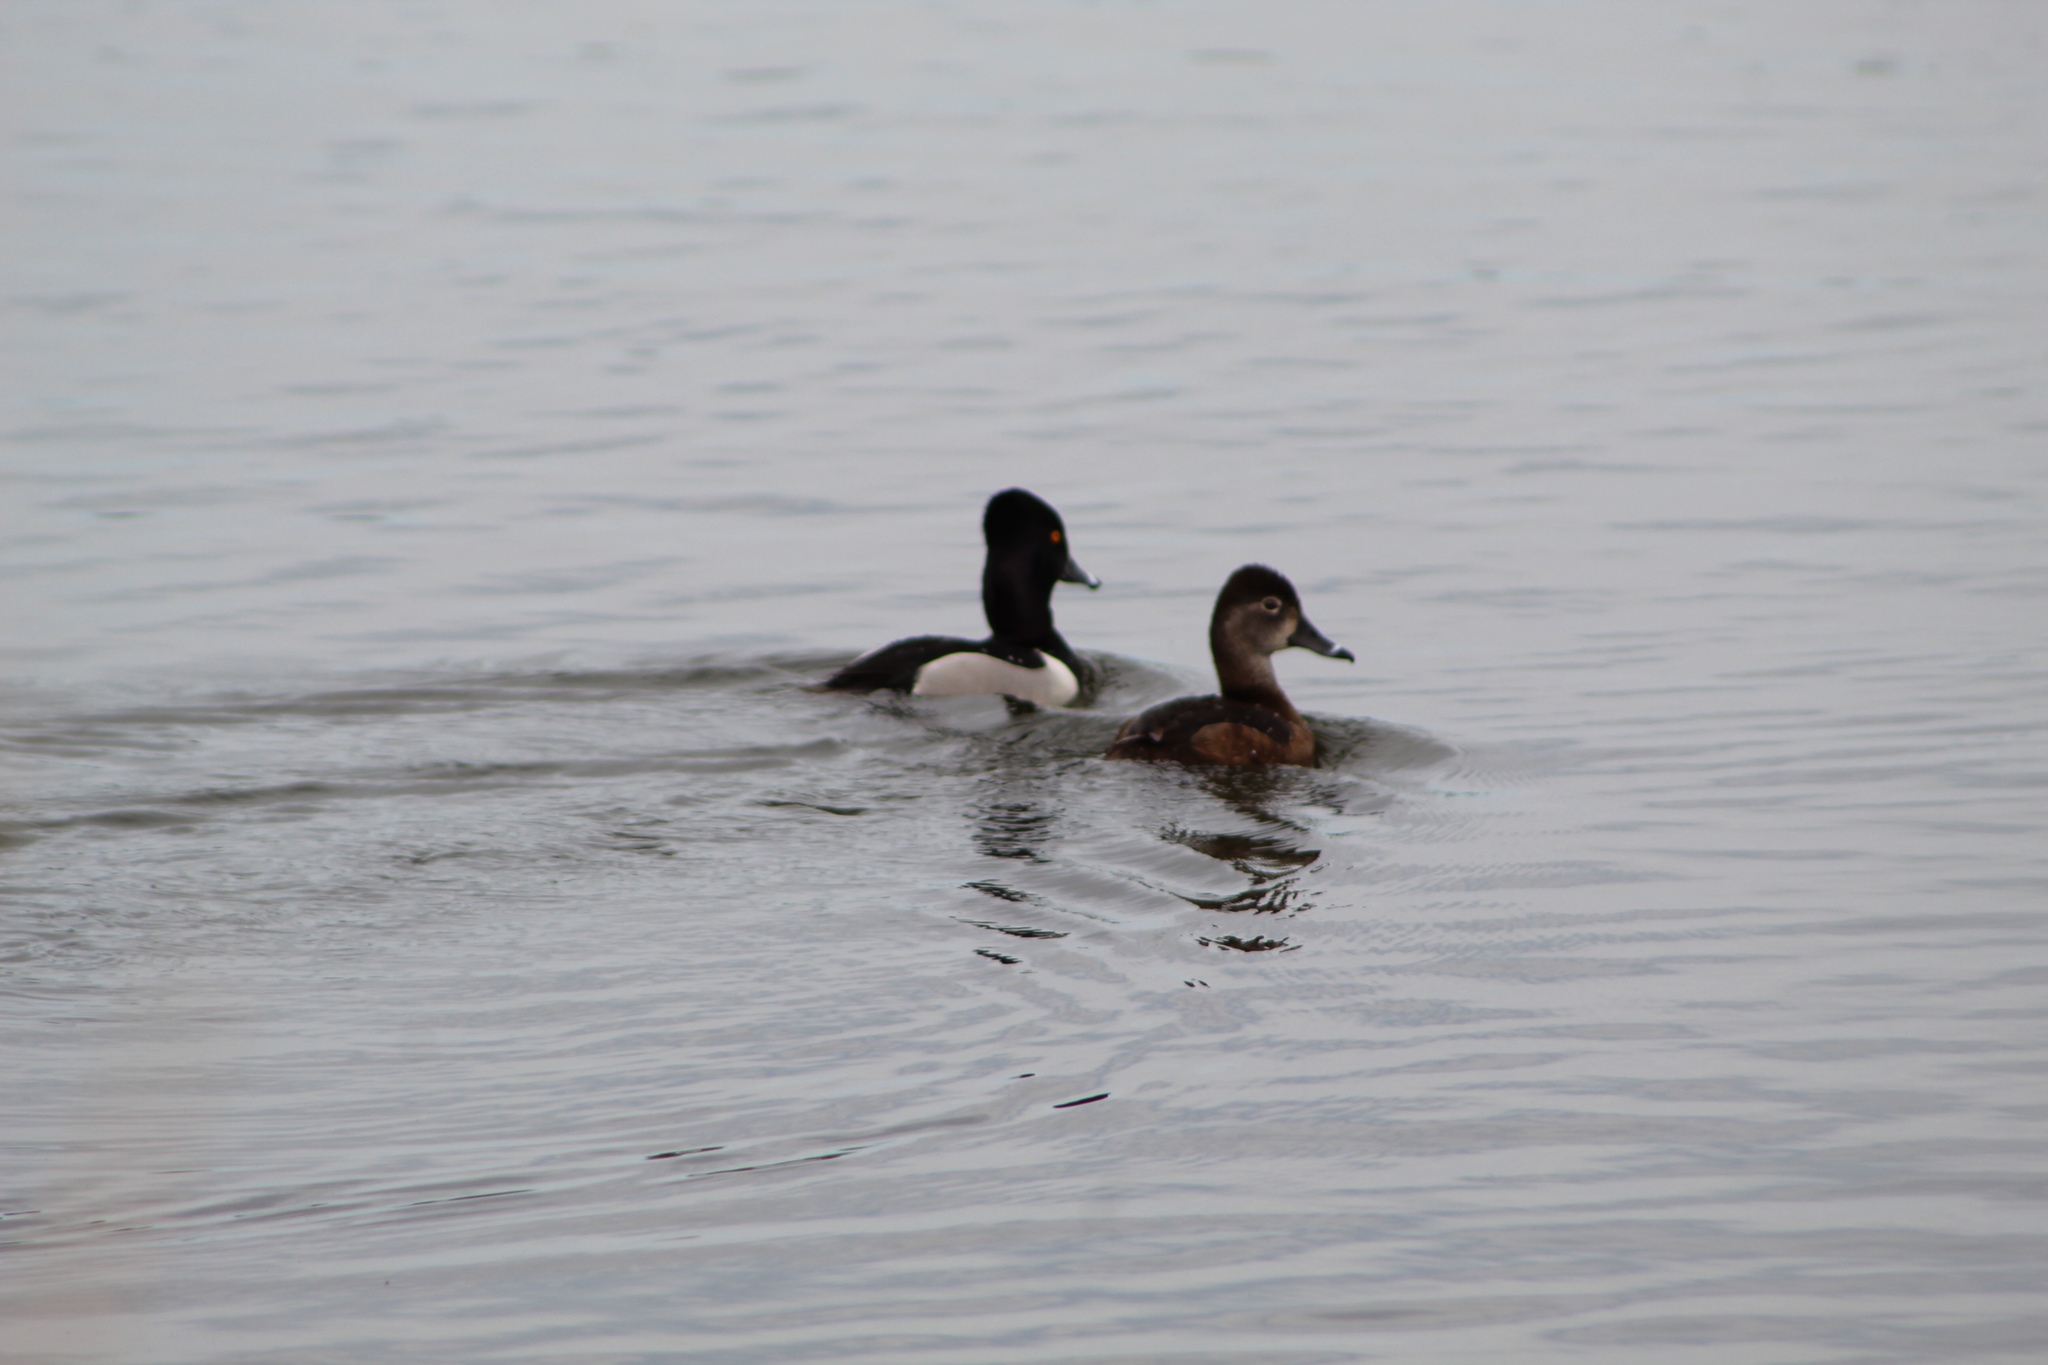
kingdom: Animalia
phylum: Chordata
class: Aves
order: Anseriformes
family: Anatidae
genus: Aythya
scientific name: Aythya collaris
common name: Ring-necked duck
